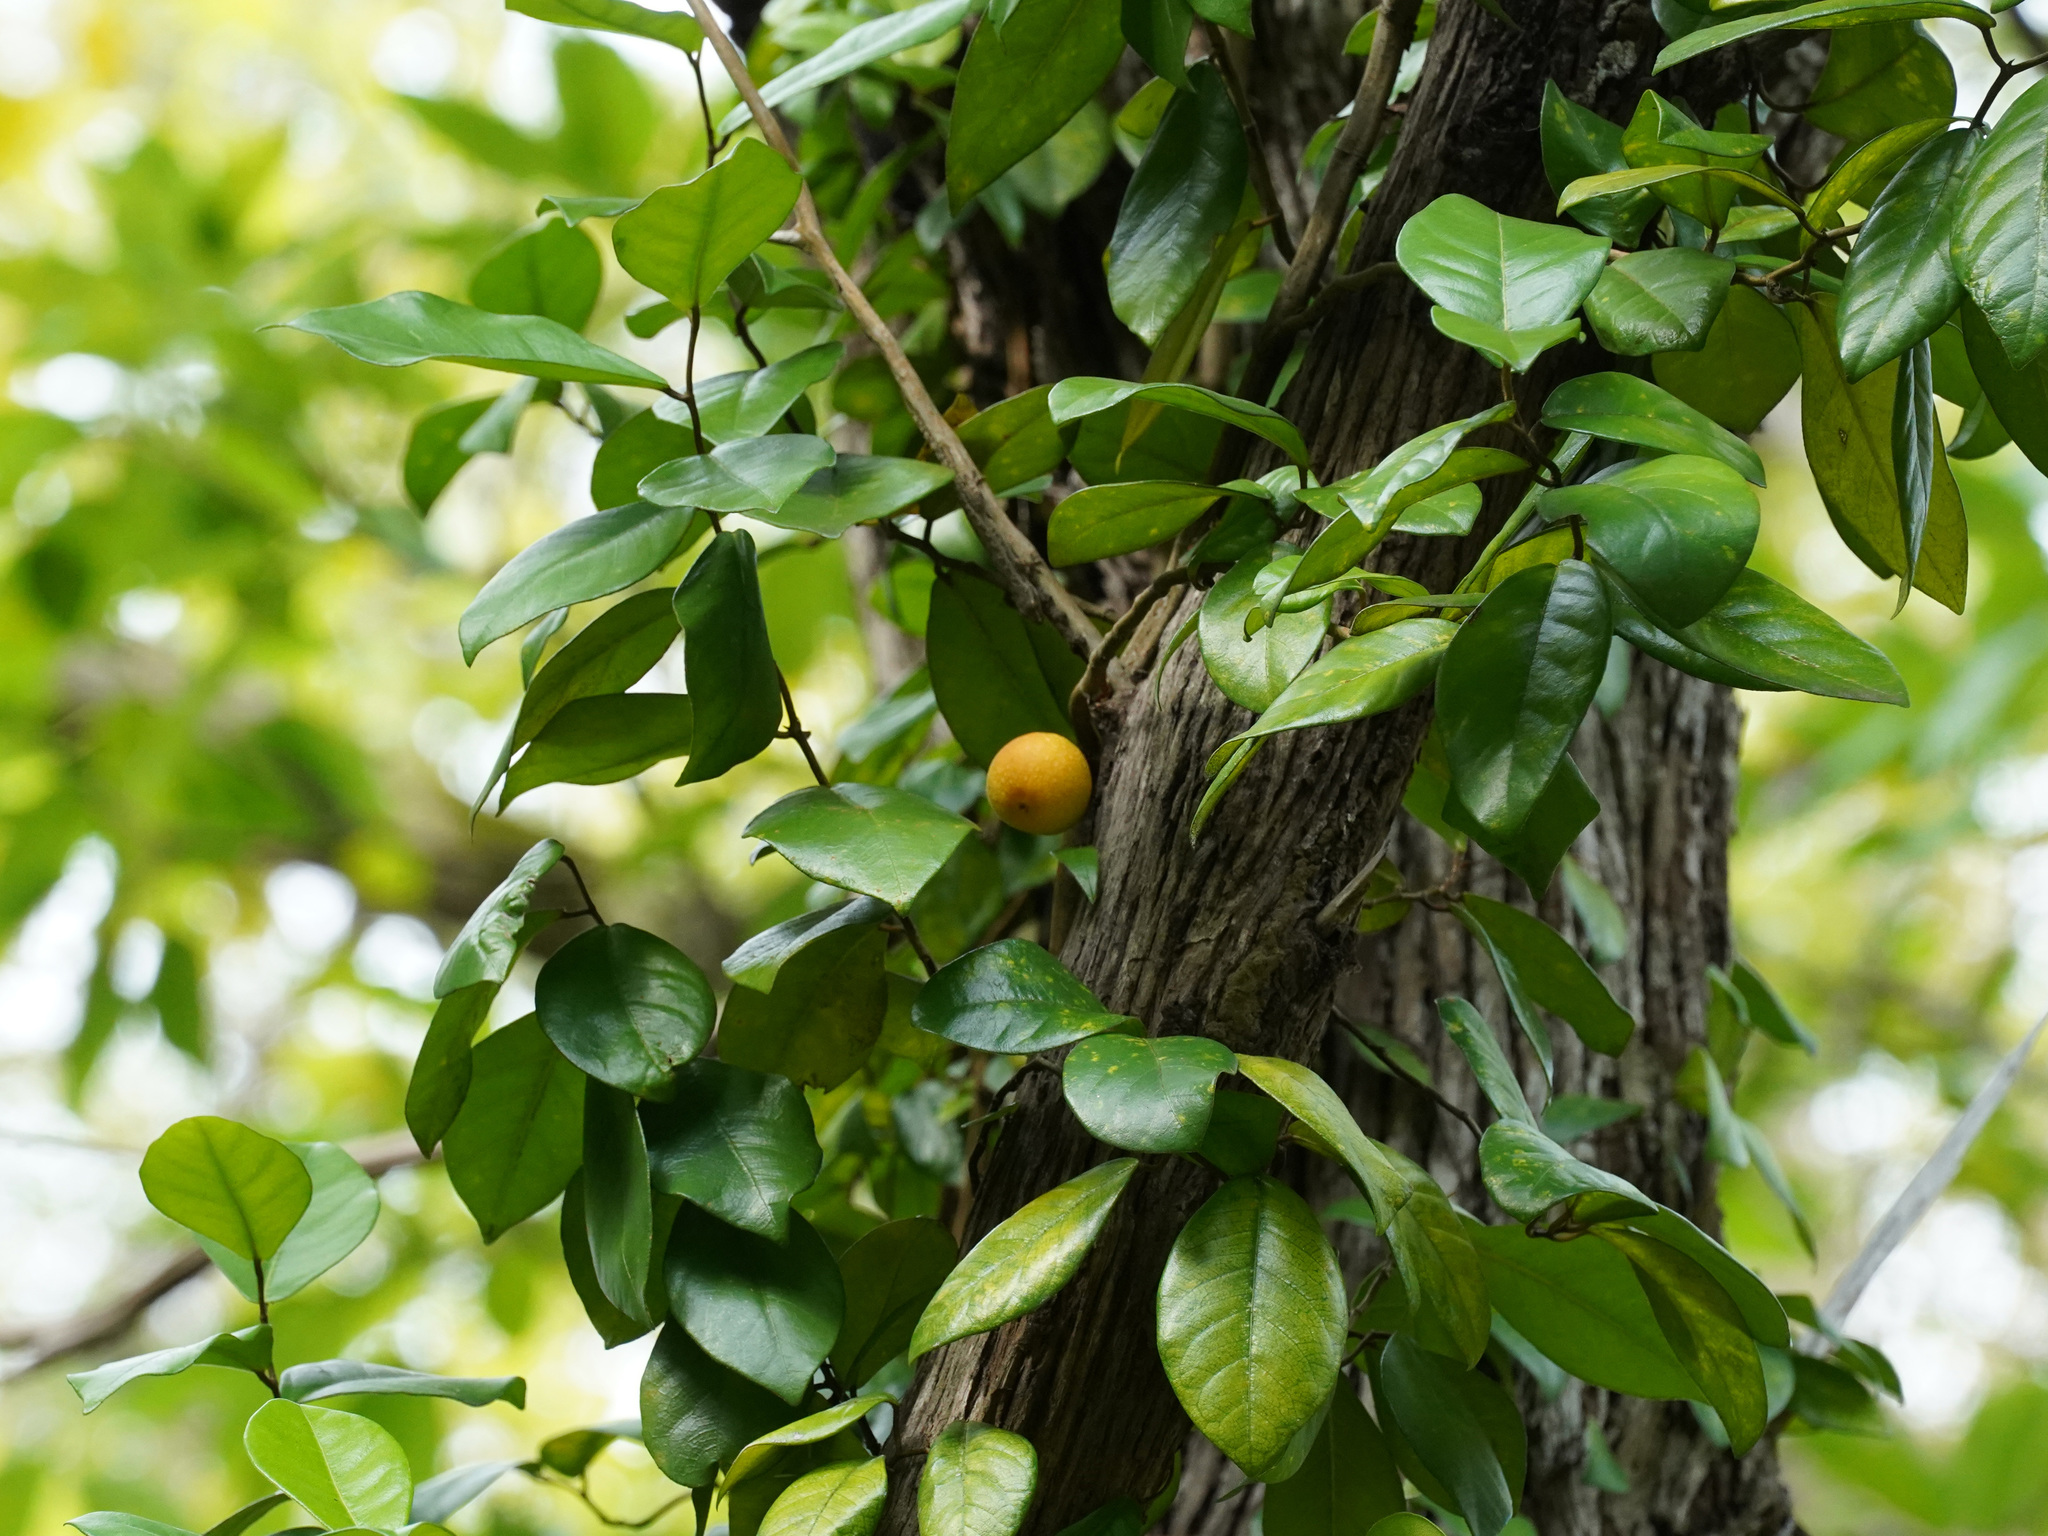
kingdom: Plantae
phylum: Tracheophyta
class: Magnoliopsida
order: Rosales
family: Moraceae
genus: Ficus
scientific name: Ficus punctata
